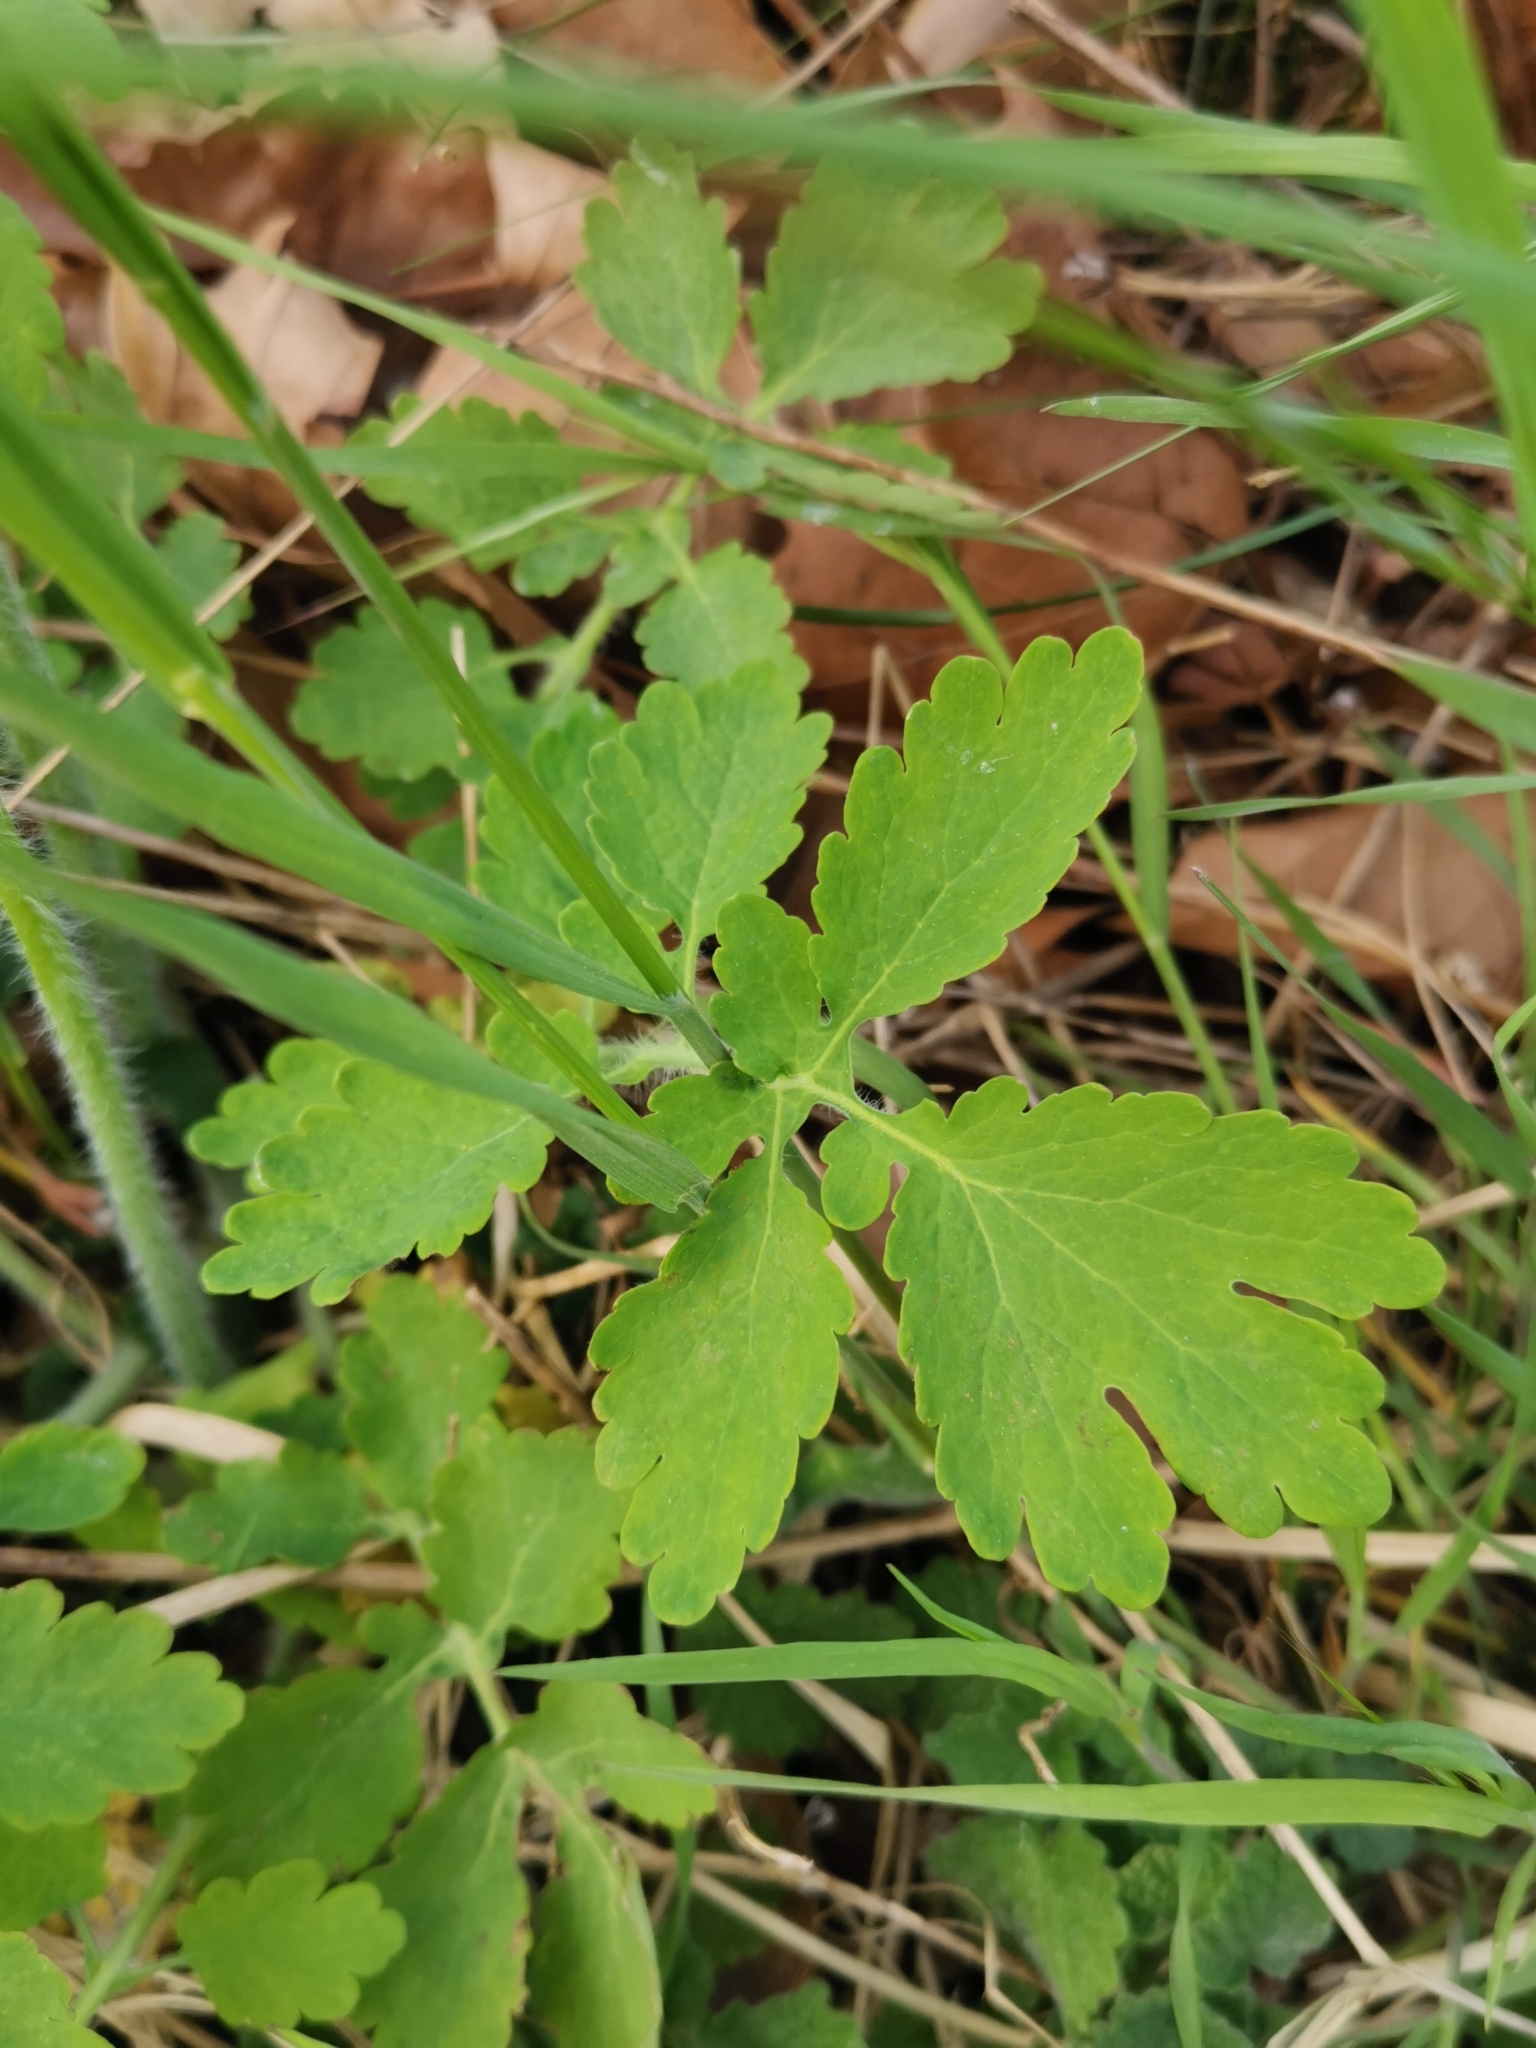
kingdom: Plantae
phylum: Tracheophyta
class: Magnoliopsida
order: Ranunculales
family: Papaveraceae
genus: Chelidonium
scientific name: Chelidonium majus
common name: Greater celandine
